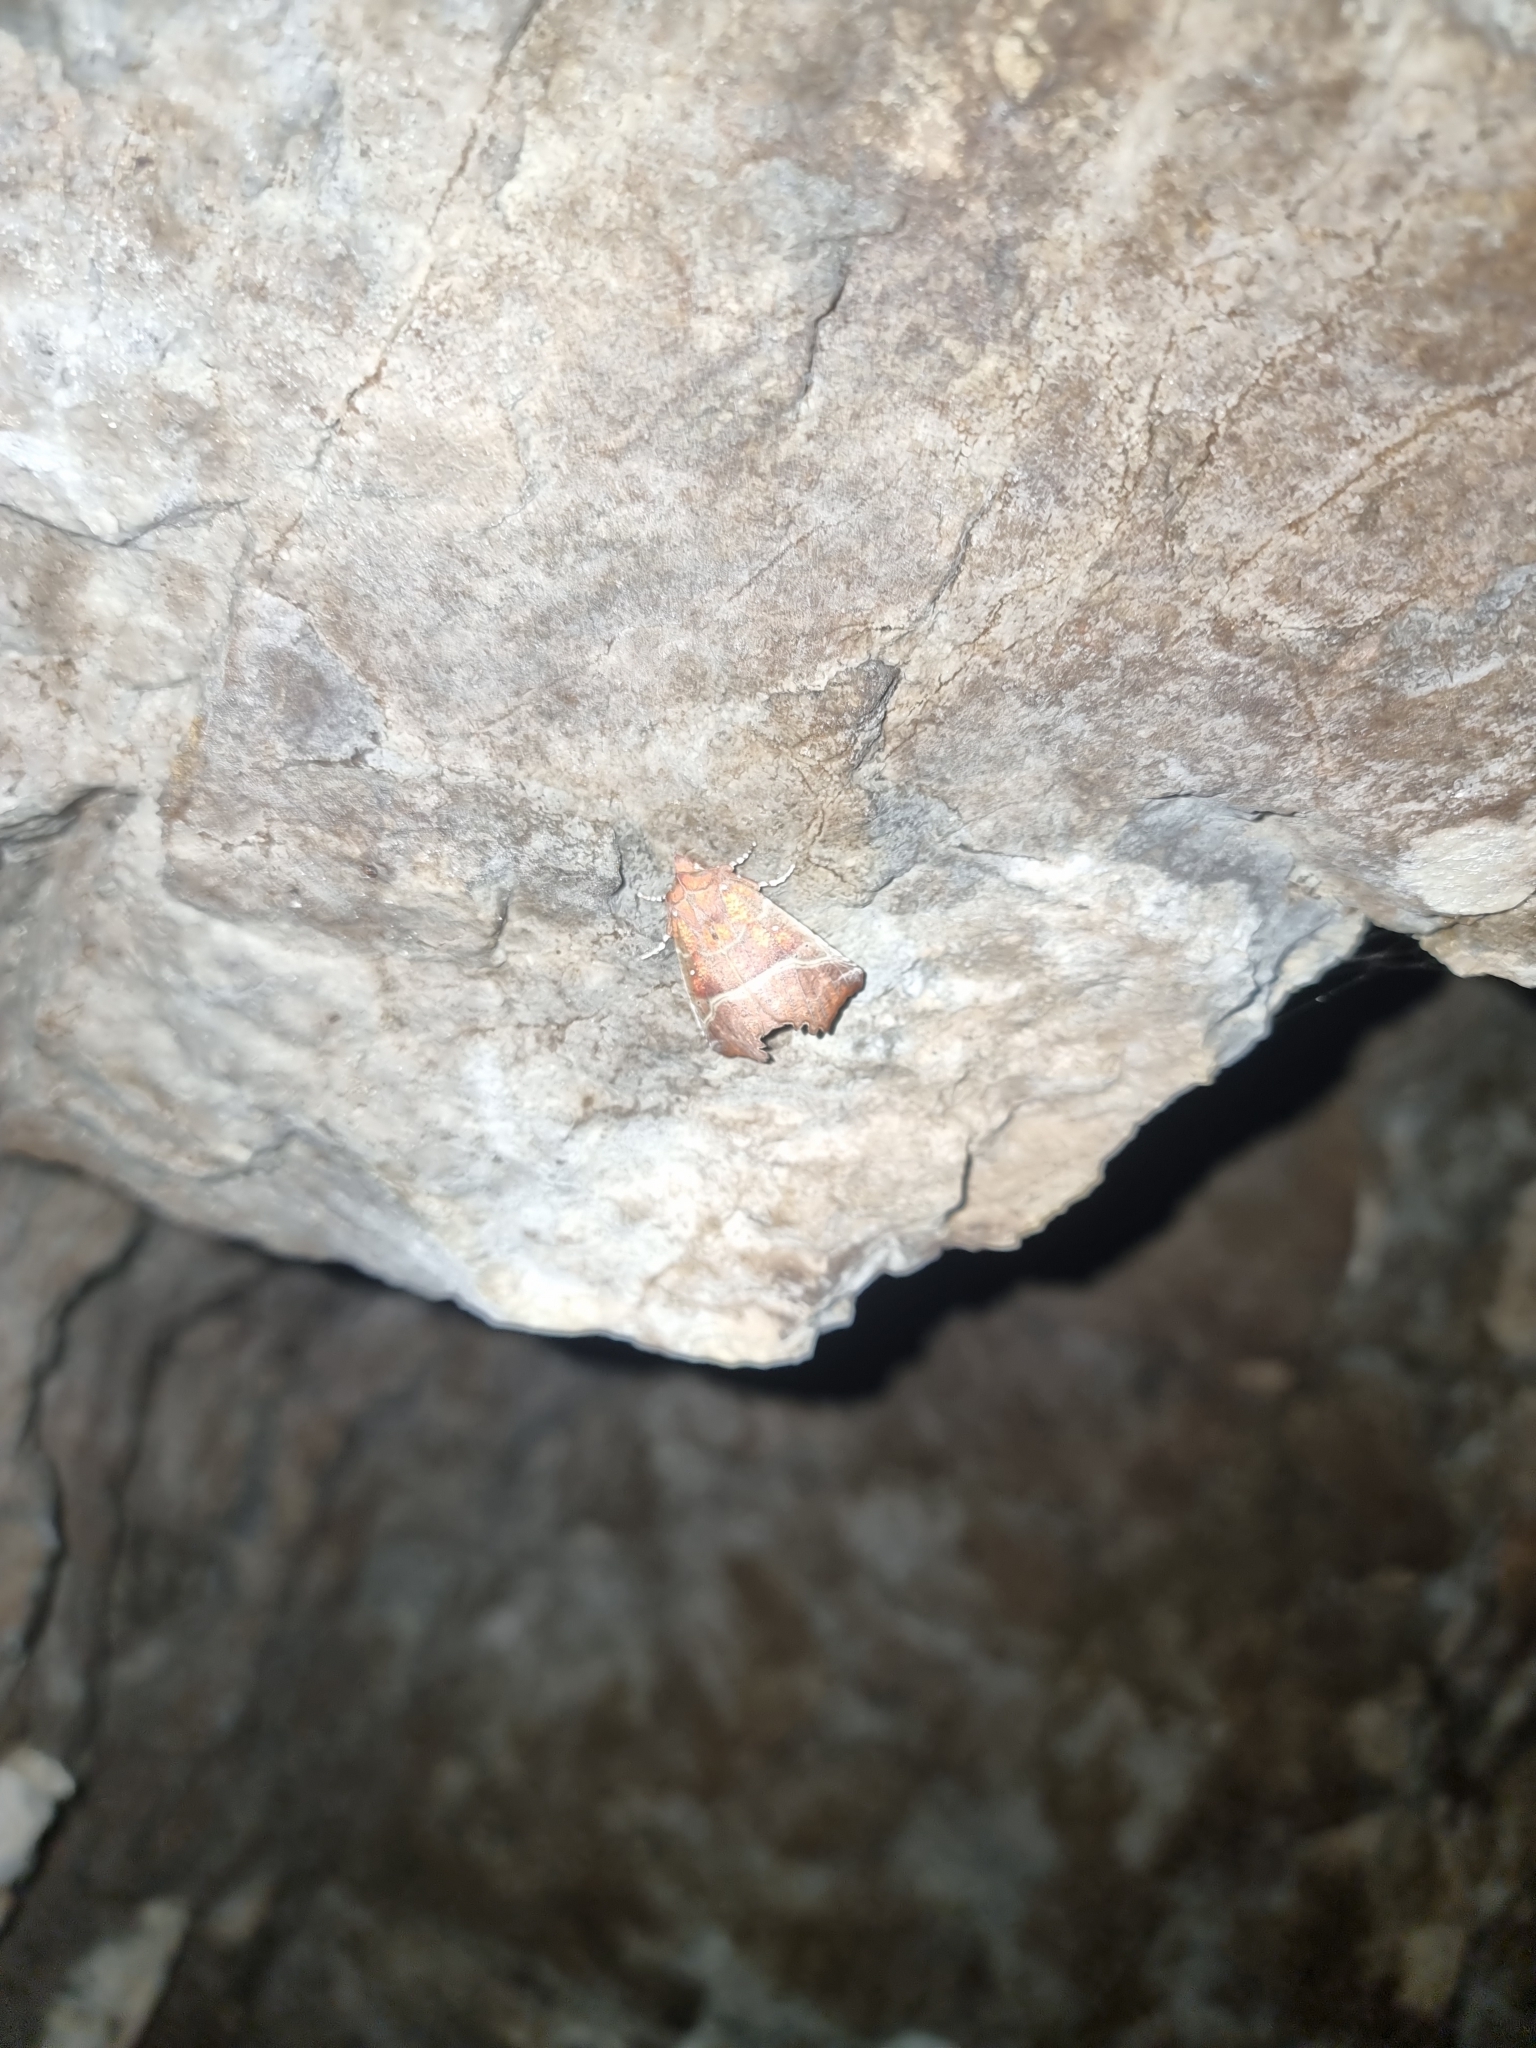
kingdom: Animalia
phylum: Arthropoda
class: Insecta
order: Lepidoptera
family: Erebidae
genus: Scoliopteryx
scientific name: Scoliopteryx libatrix
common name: Herald
